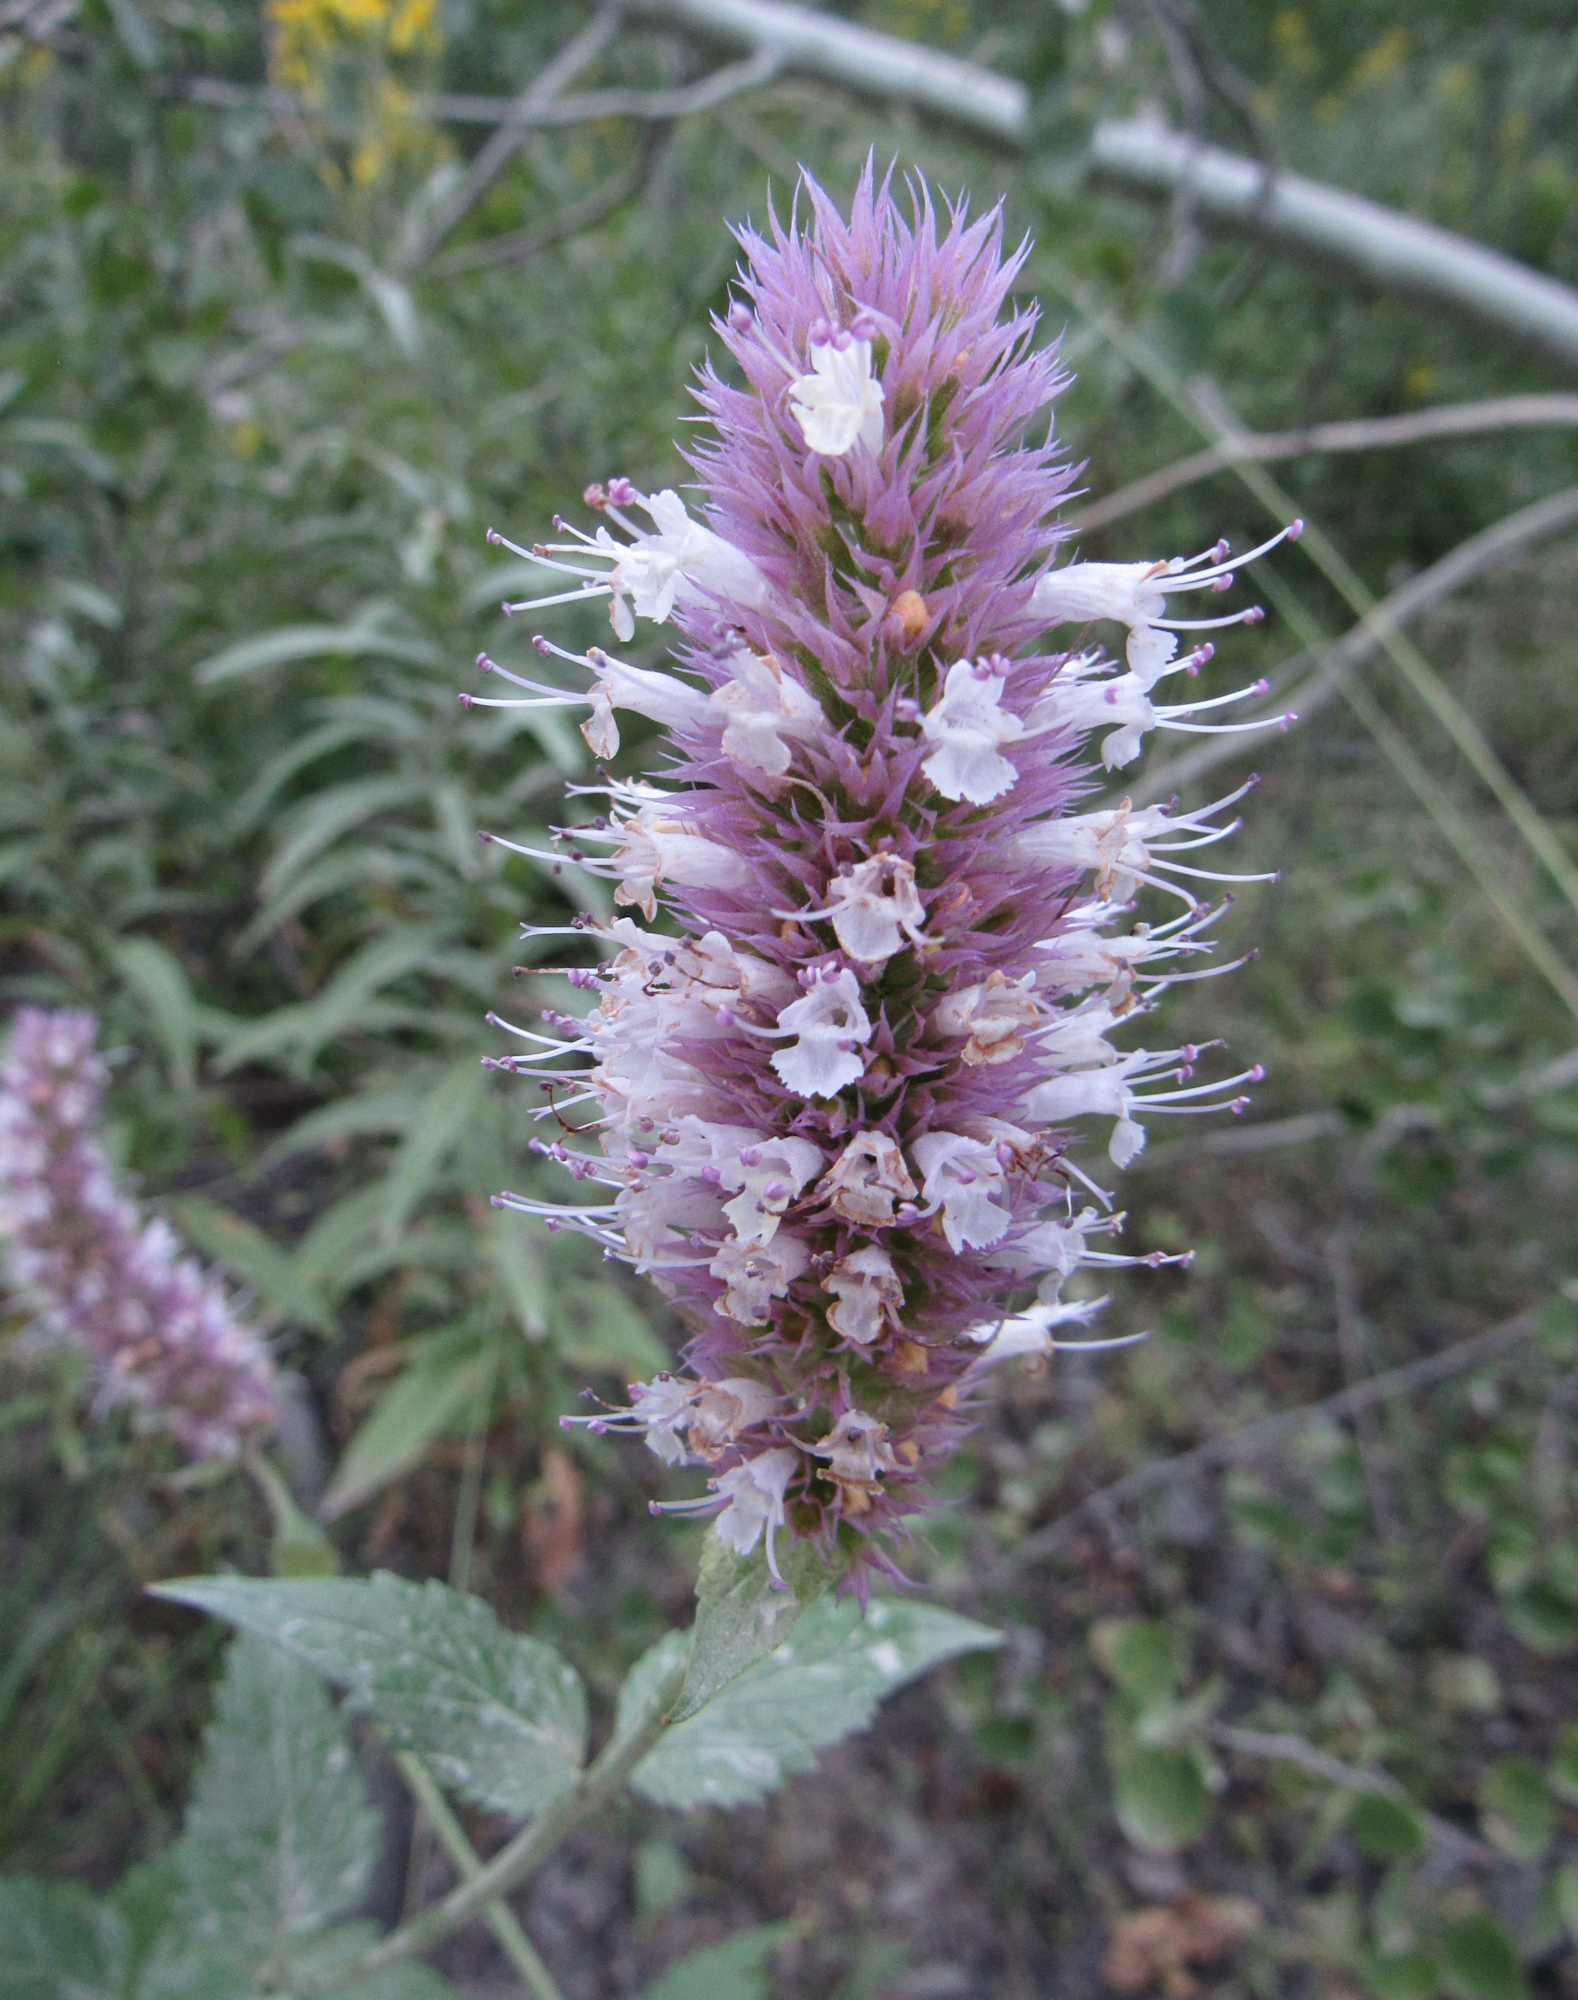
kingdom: Plantae
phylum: Tracheophyta
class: Magnoliopsida
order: Lamiales
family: Lamiaceae
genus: Agastache
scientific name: Agastache urticifolia
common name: Horsemint giant hyssop
